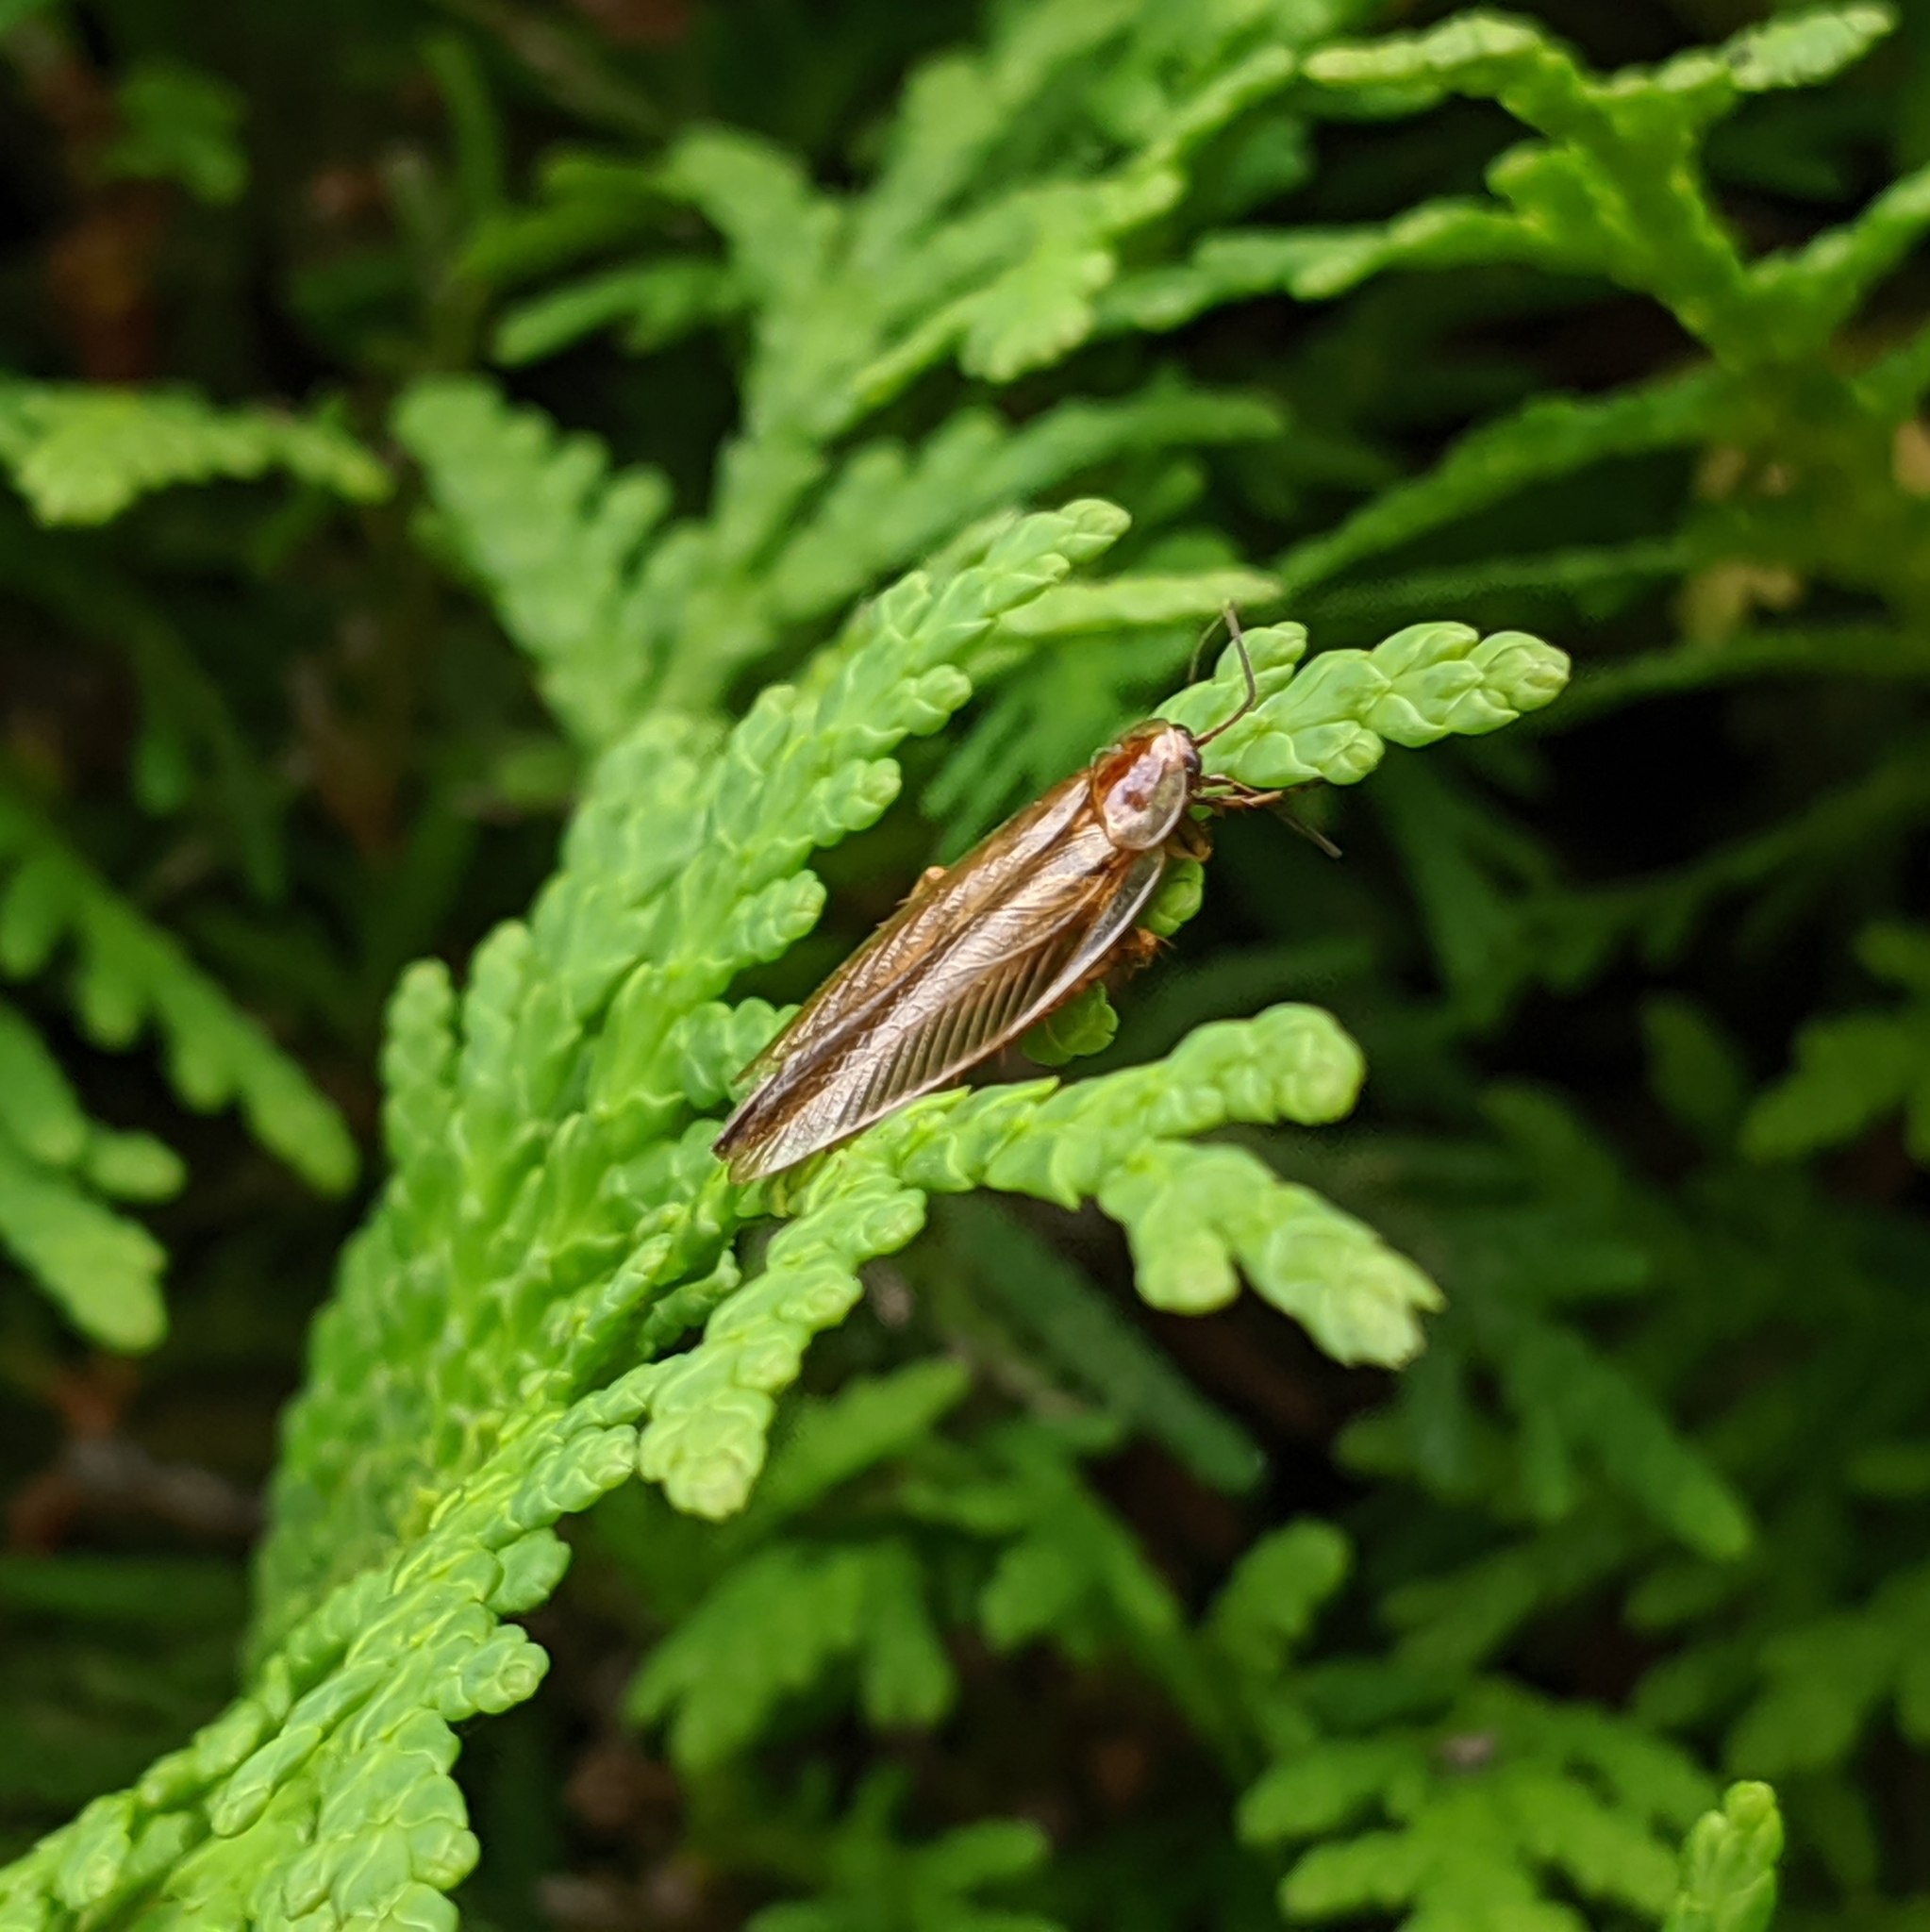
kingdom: Animalia
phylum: Arthropoda
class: Insecta
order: Blattodea
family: Ectobiidae
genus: Ectobius
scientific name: Ectobius pallidus
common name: Tawny cockroach
